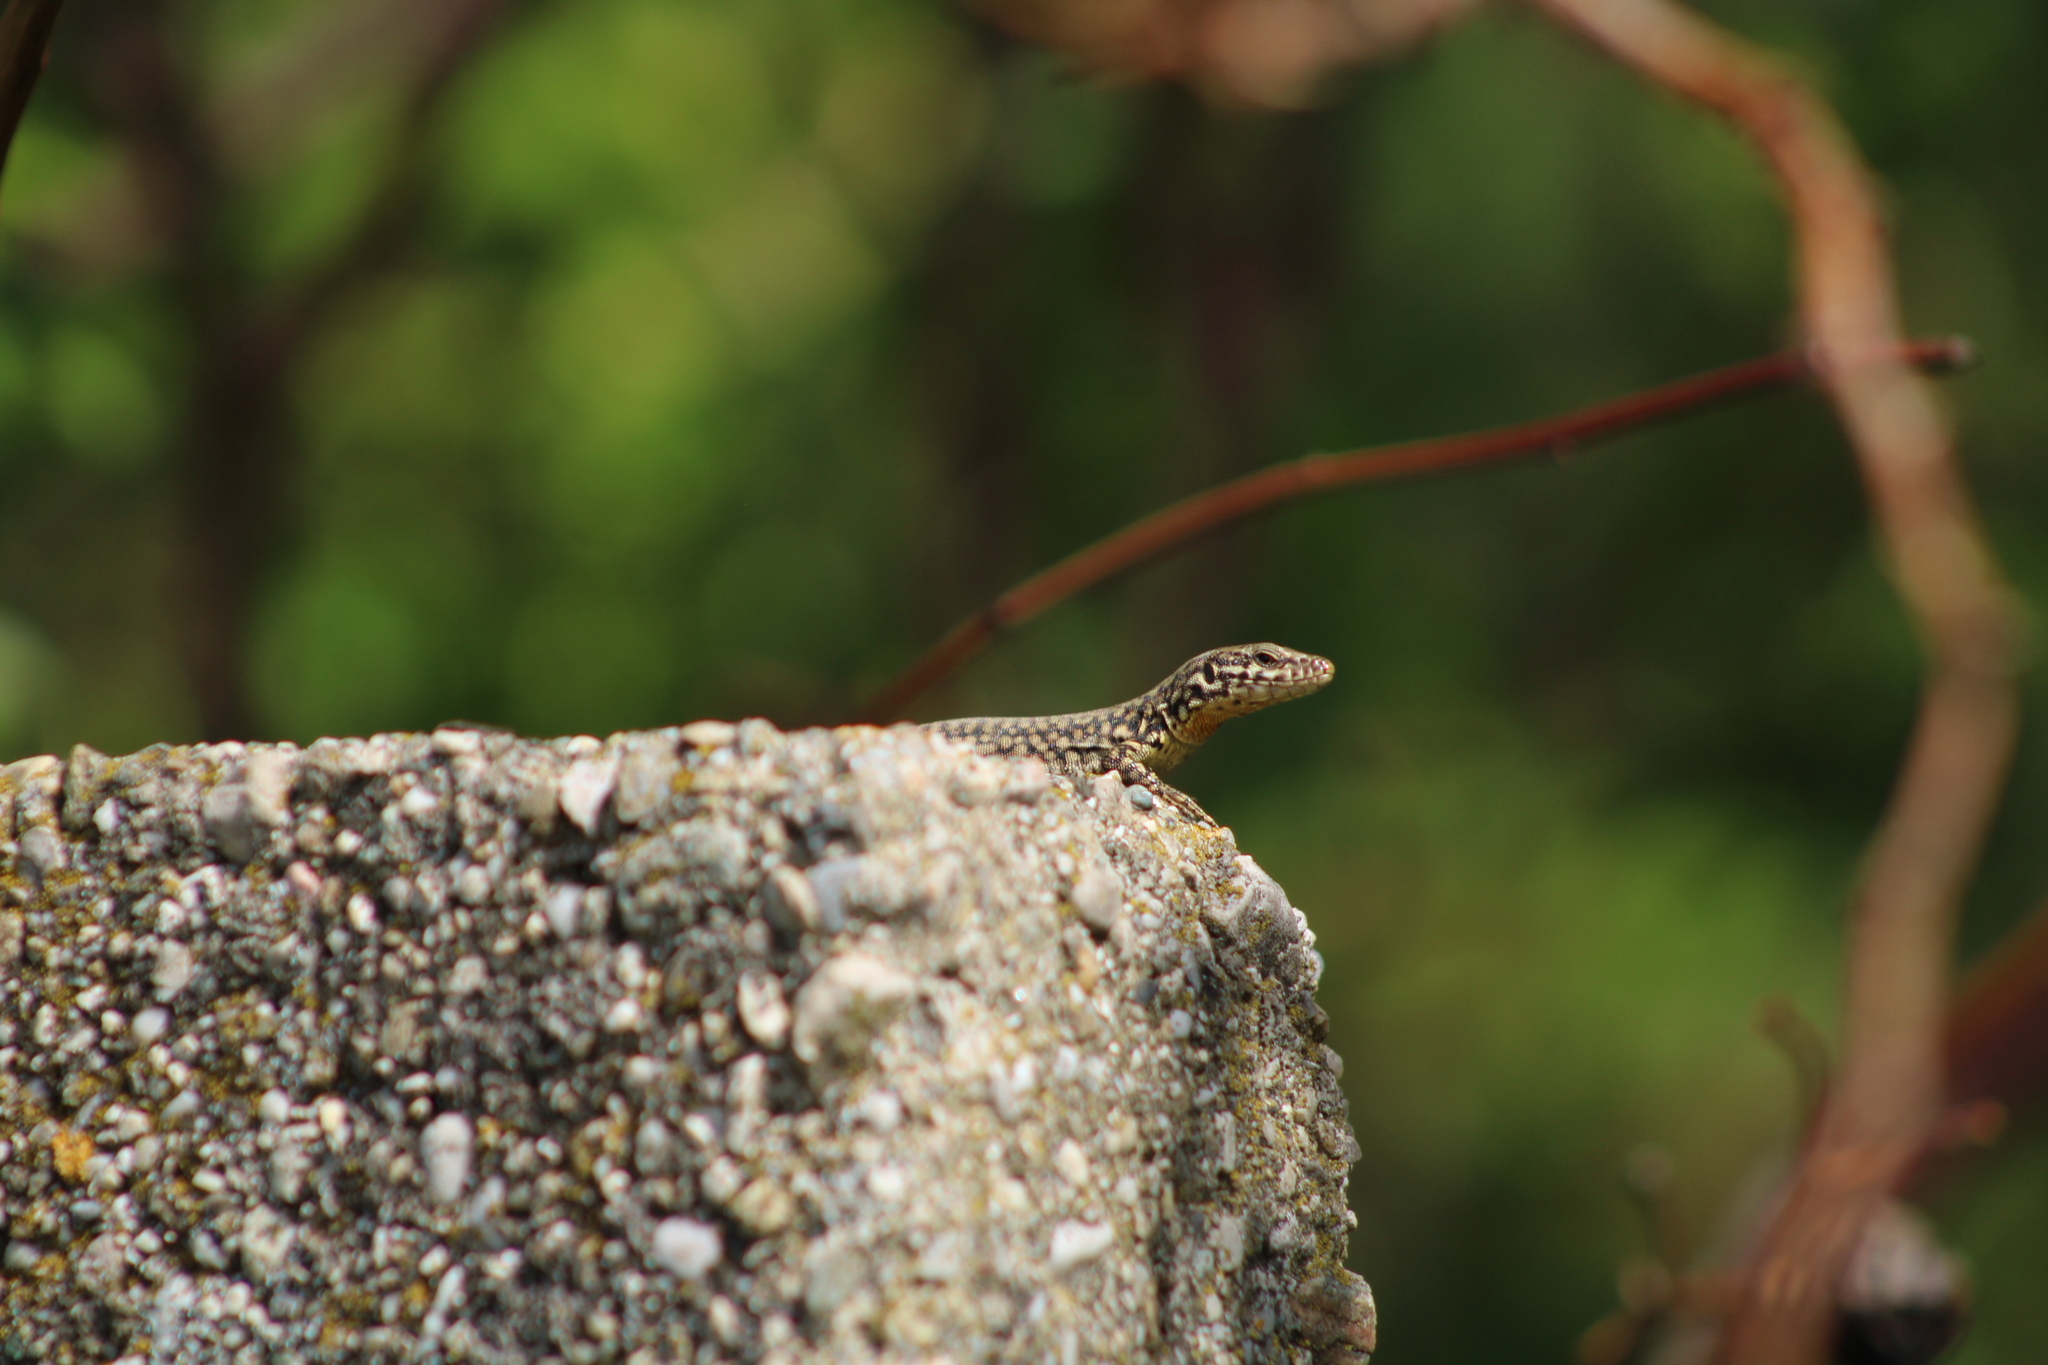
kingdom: Animalia
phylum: Chordata
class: Squamata
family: Lacertidae
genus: Podarcis
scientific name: Podarcis muralis
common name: Common wall lizard
